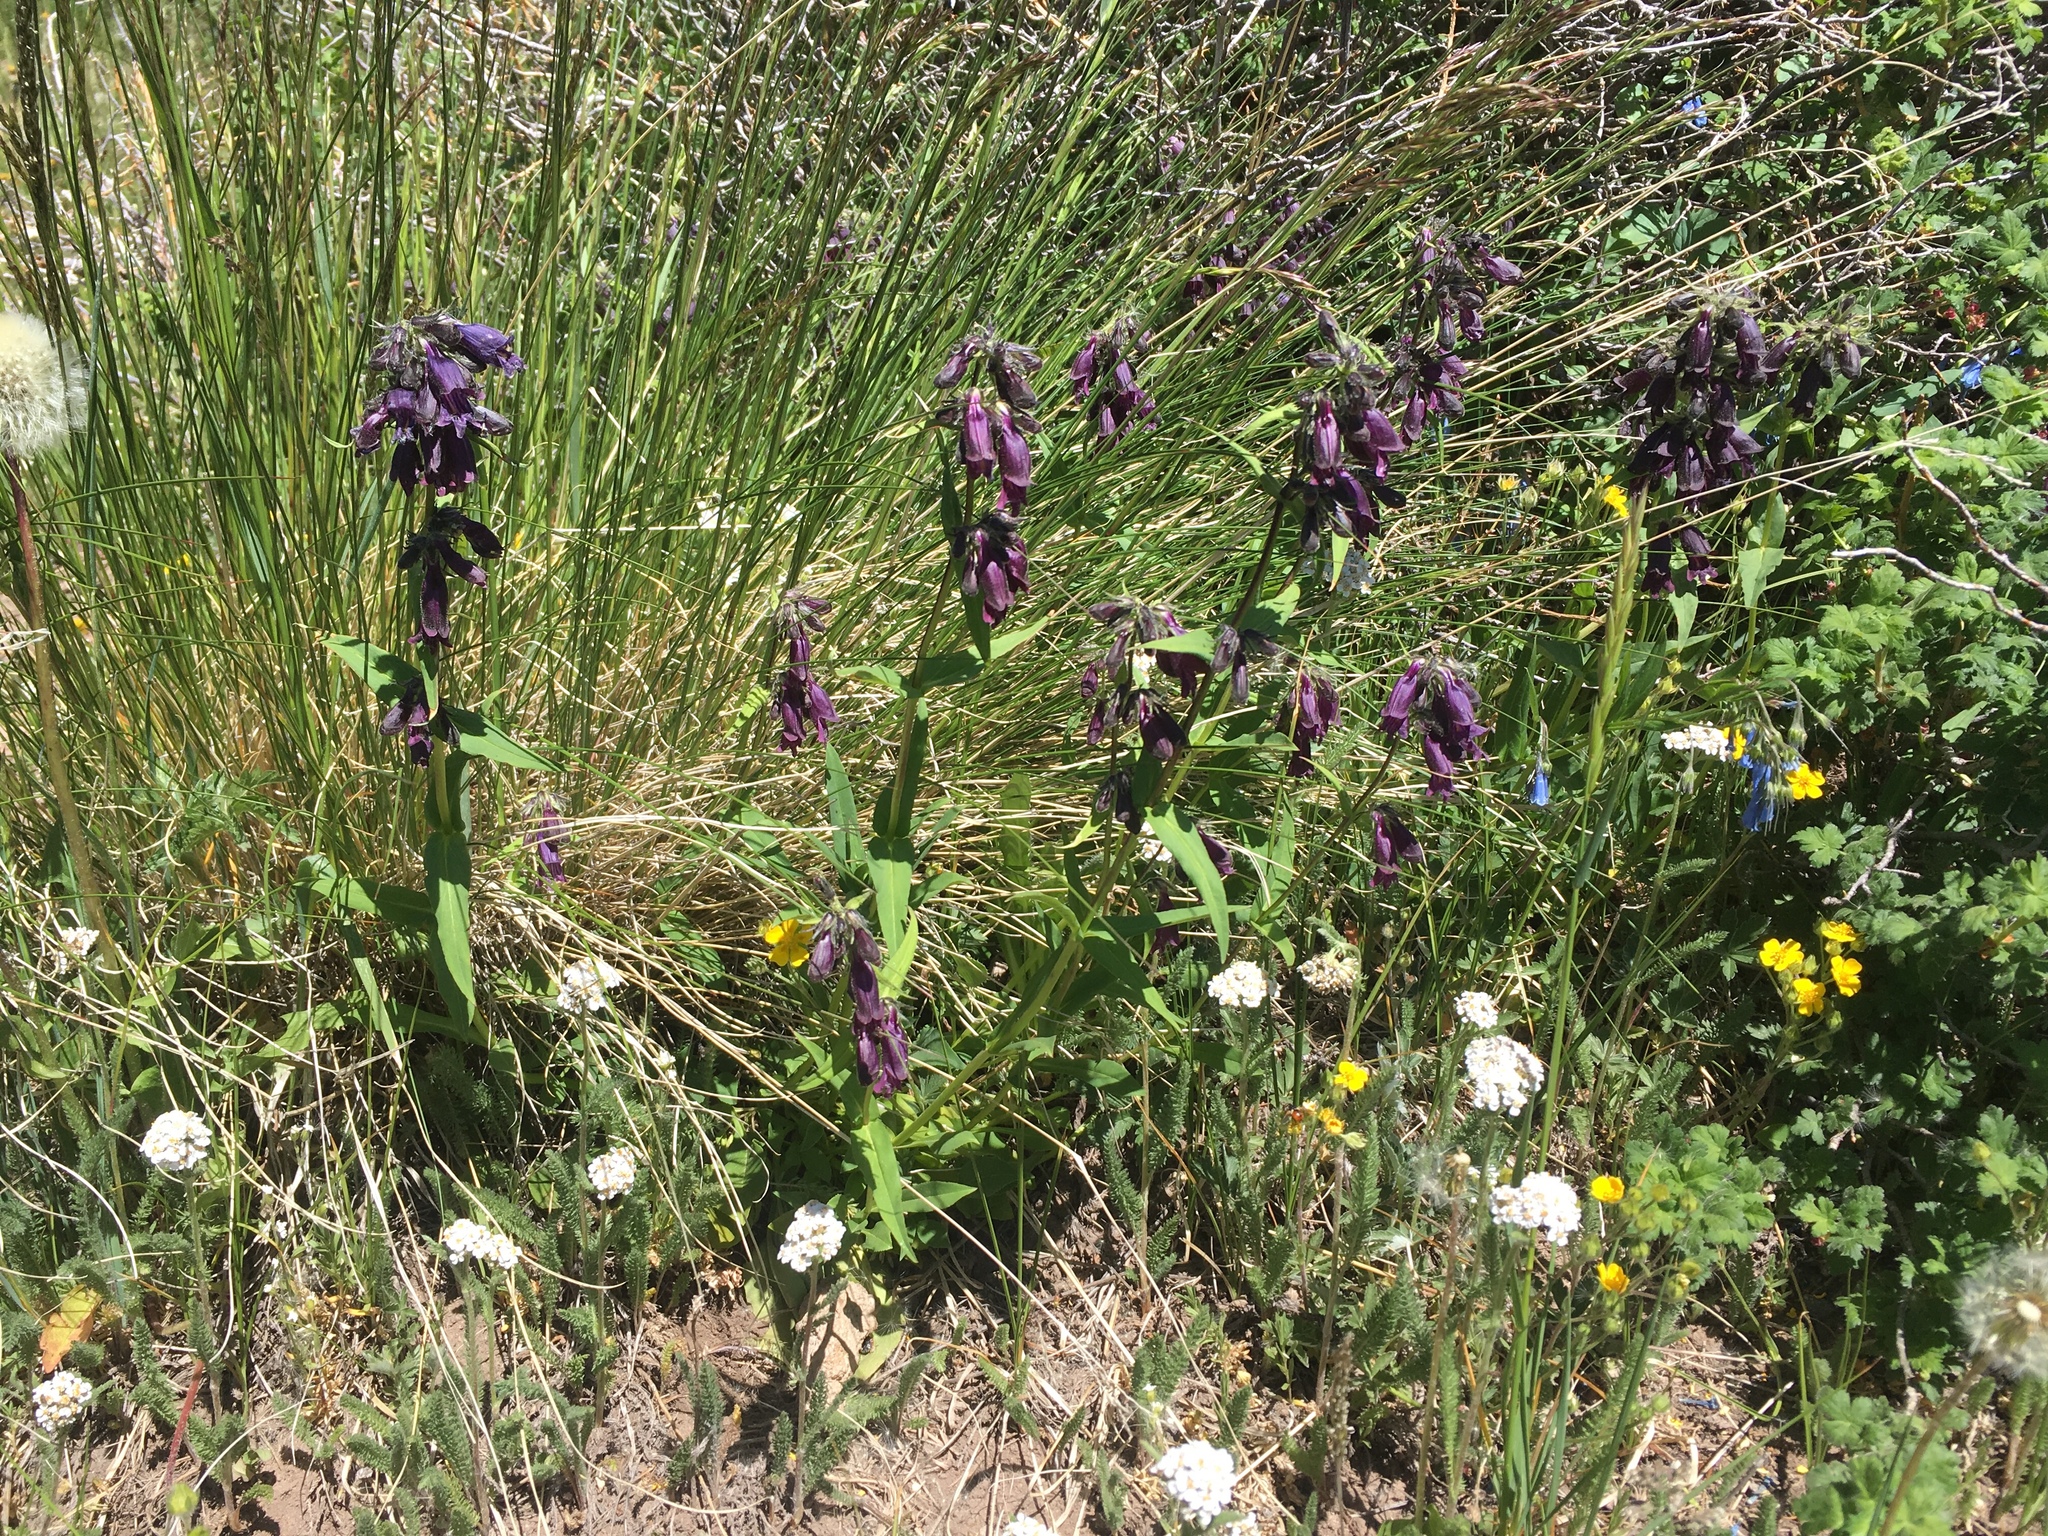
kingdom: Plantae
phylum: Tracheophyta
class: Magnoliopsida
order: Lamiales
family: Plantaginaceae
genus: Penstemon
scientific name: Penstemon whippleanus
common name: Whipple's penstemon
